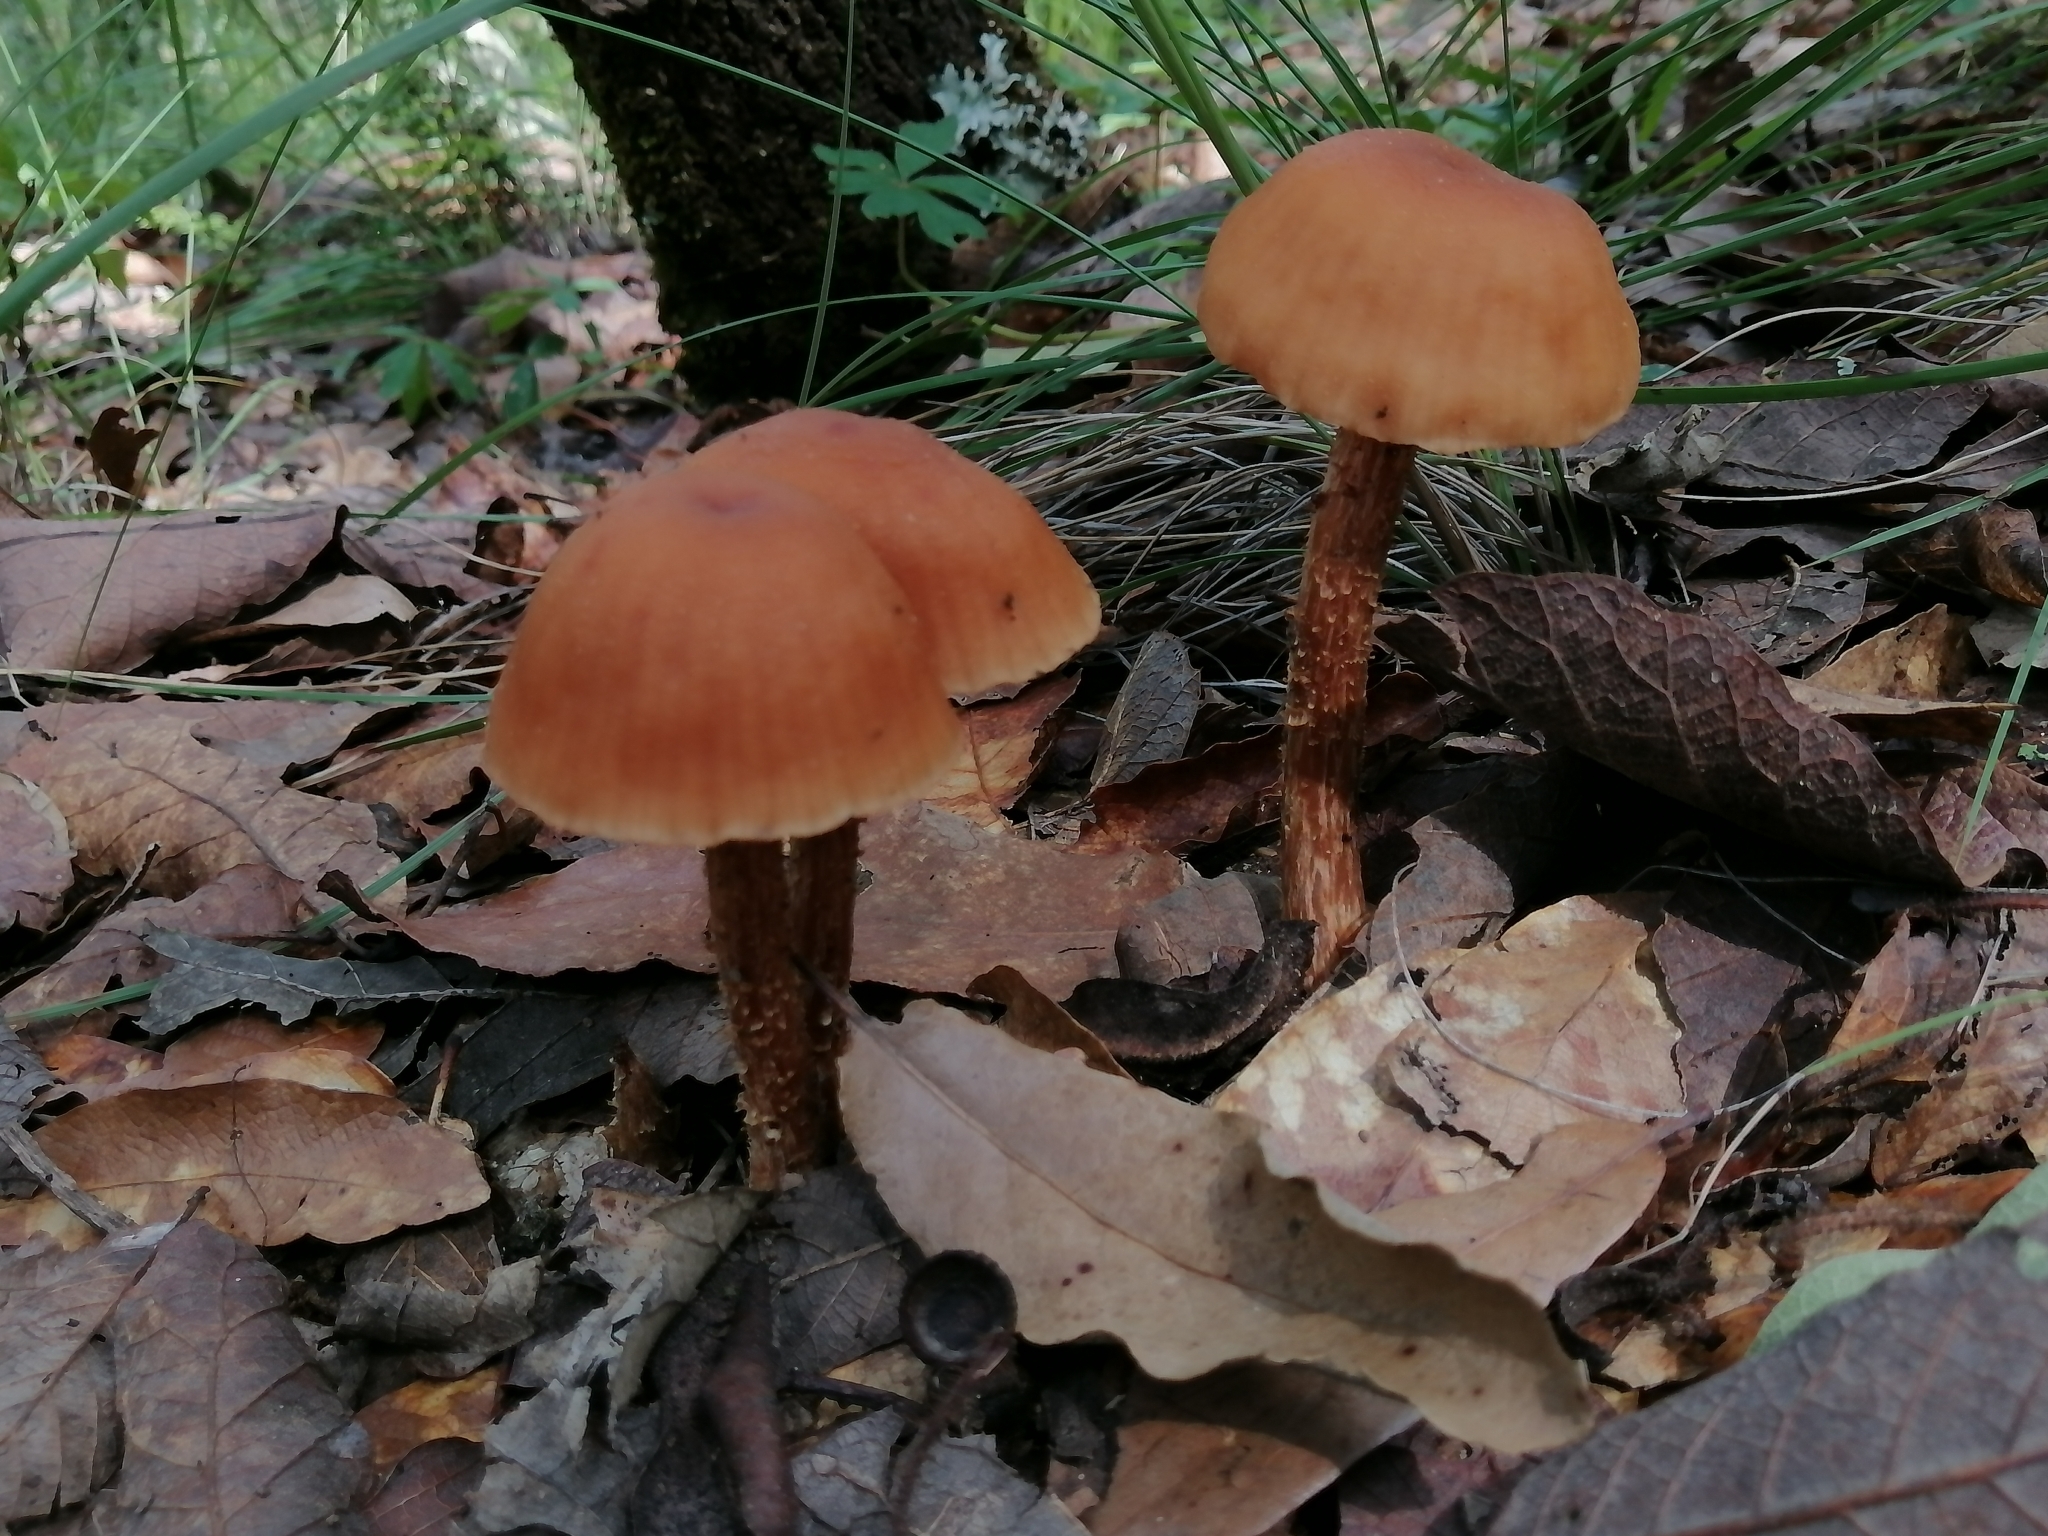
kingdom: Fungi
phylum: Basidiomycota
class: Agaricomycetes
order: Agaricales
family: Hydnangiaceae
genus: Laccaria
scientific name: Laccaria squarrosa
